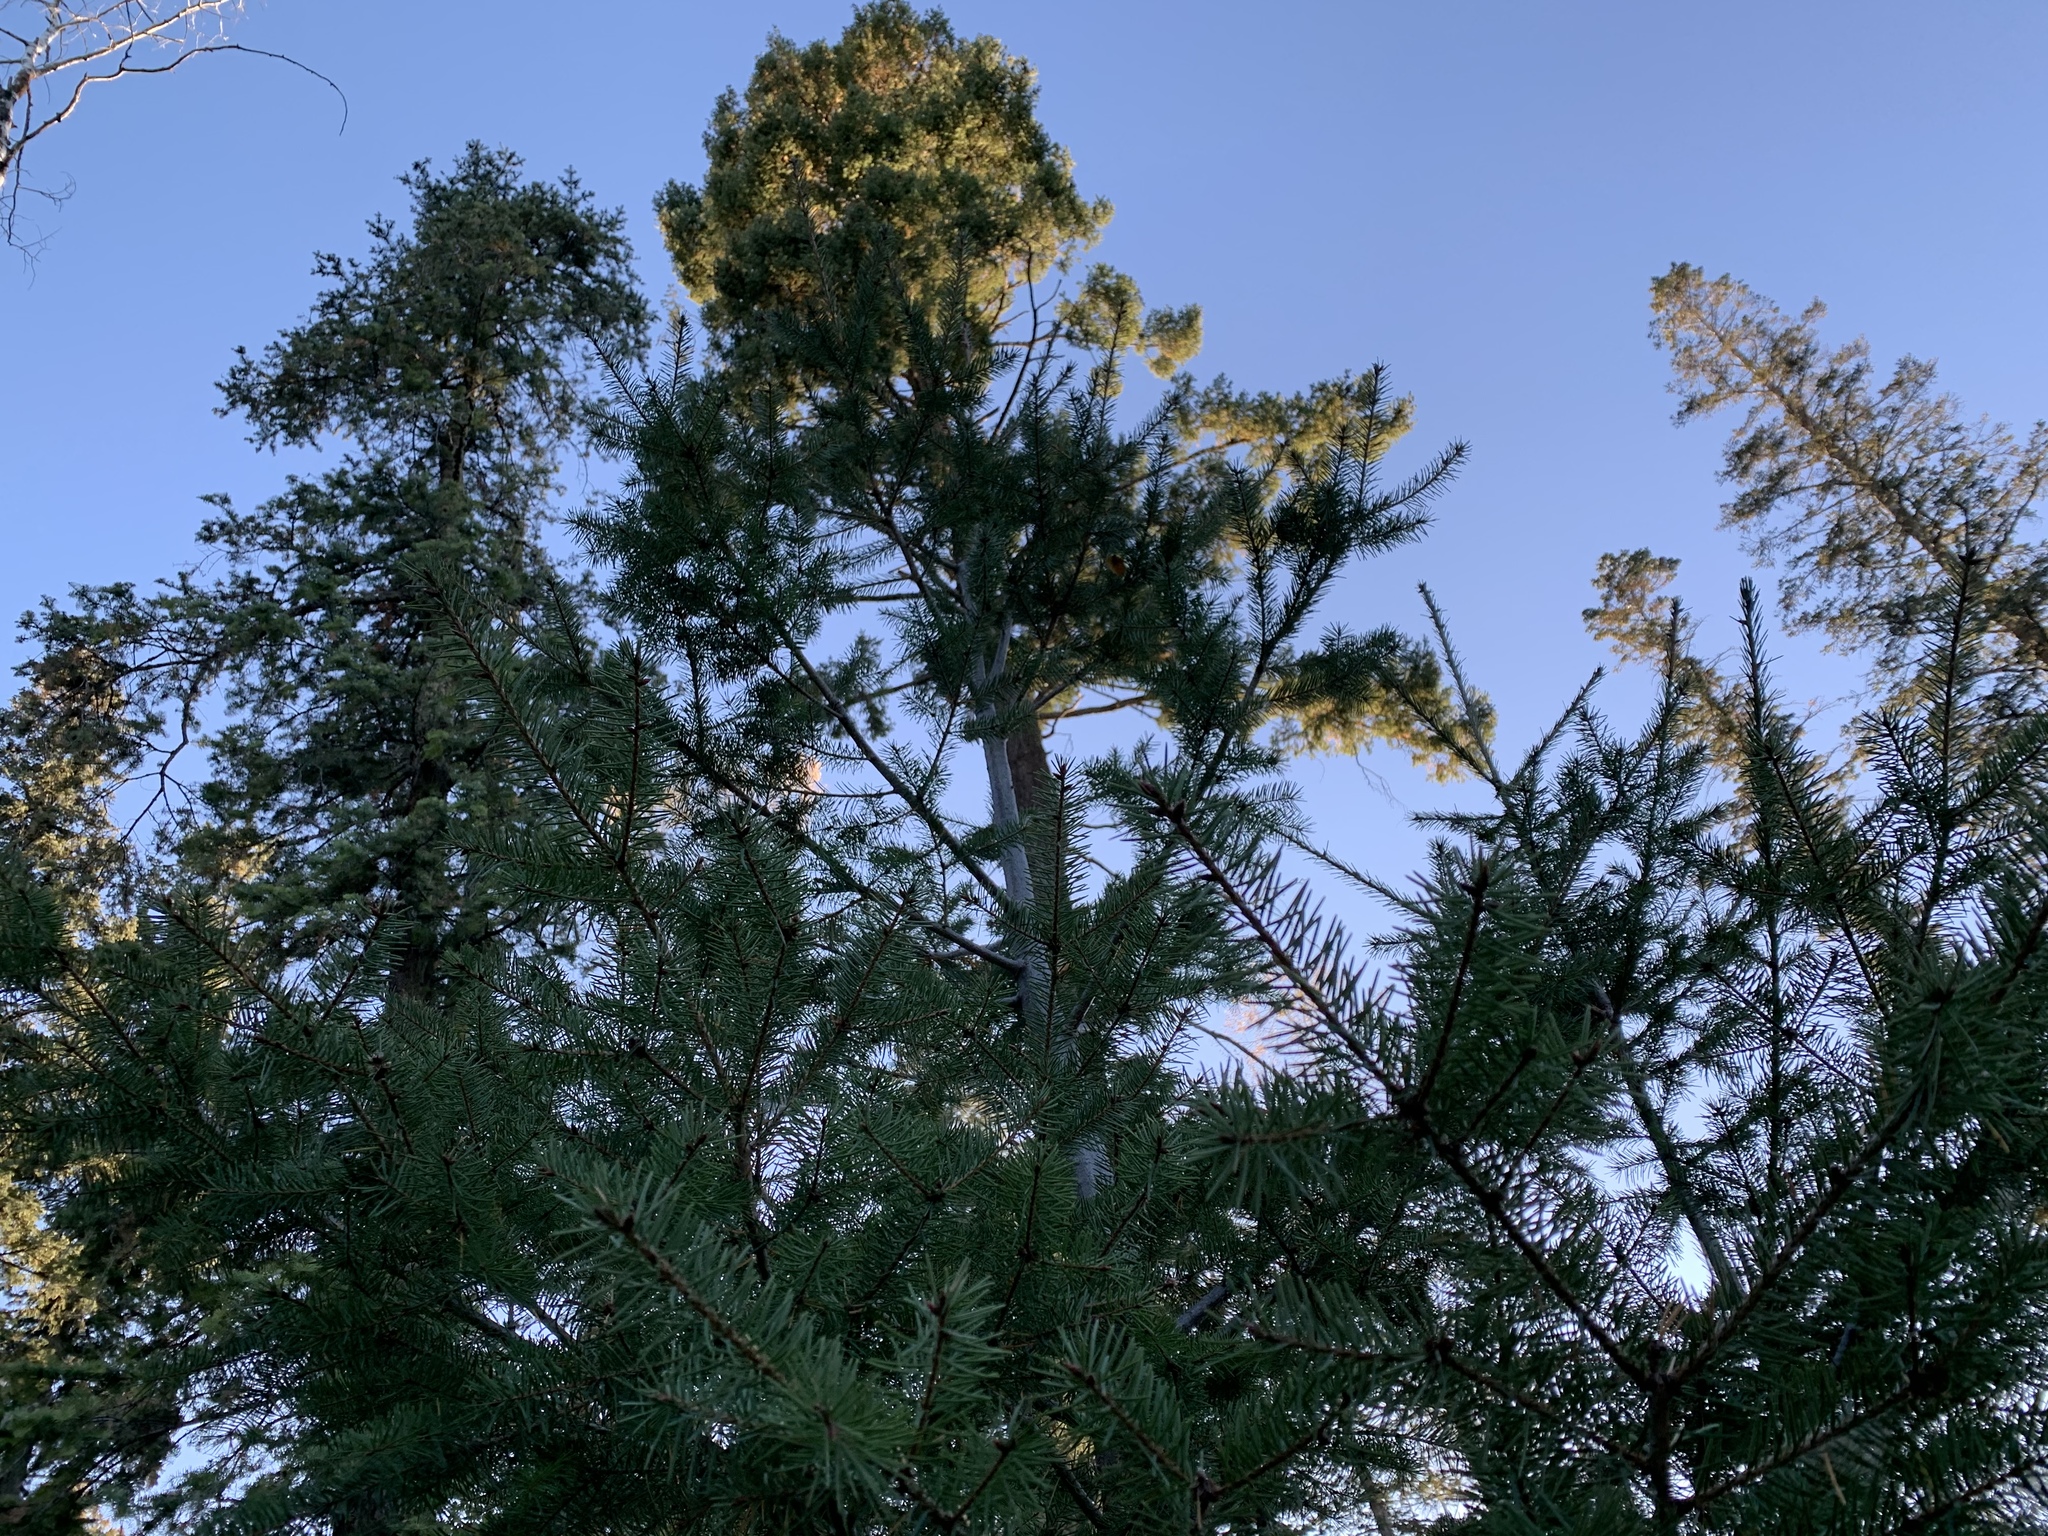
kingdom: Plantae
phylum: Tracheophyta
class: Pinopsida
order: Pinales
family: Pinaceae
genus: Pseudotsuga
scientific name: Pseudotsuga menziesii
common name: Douglas fir
